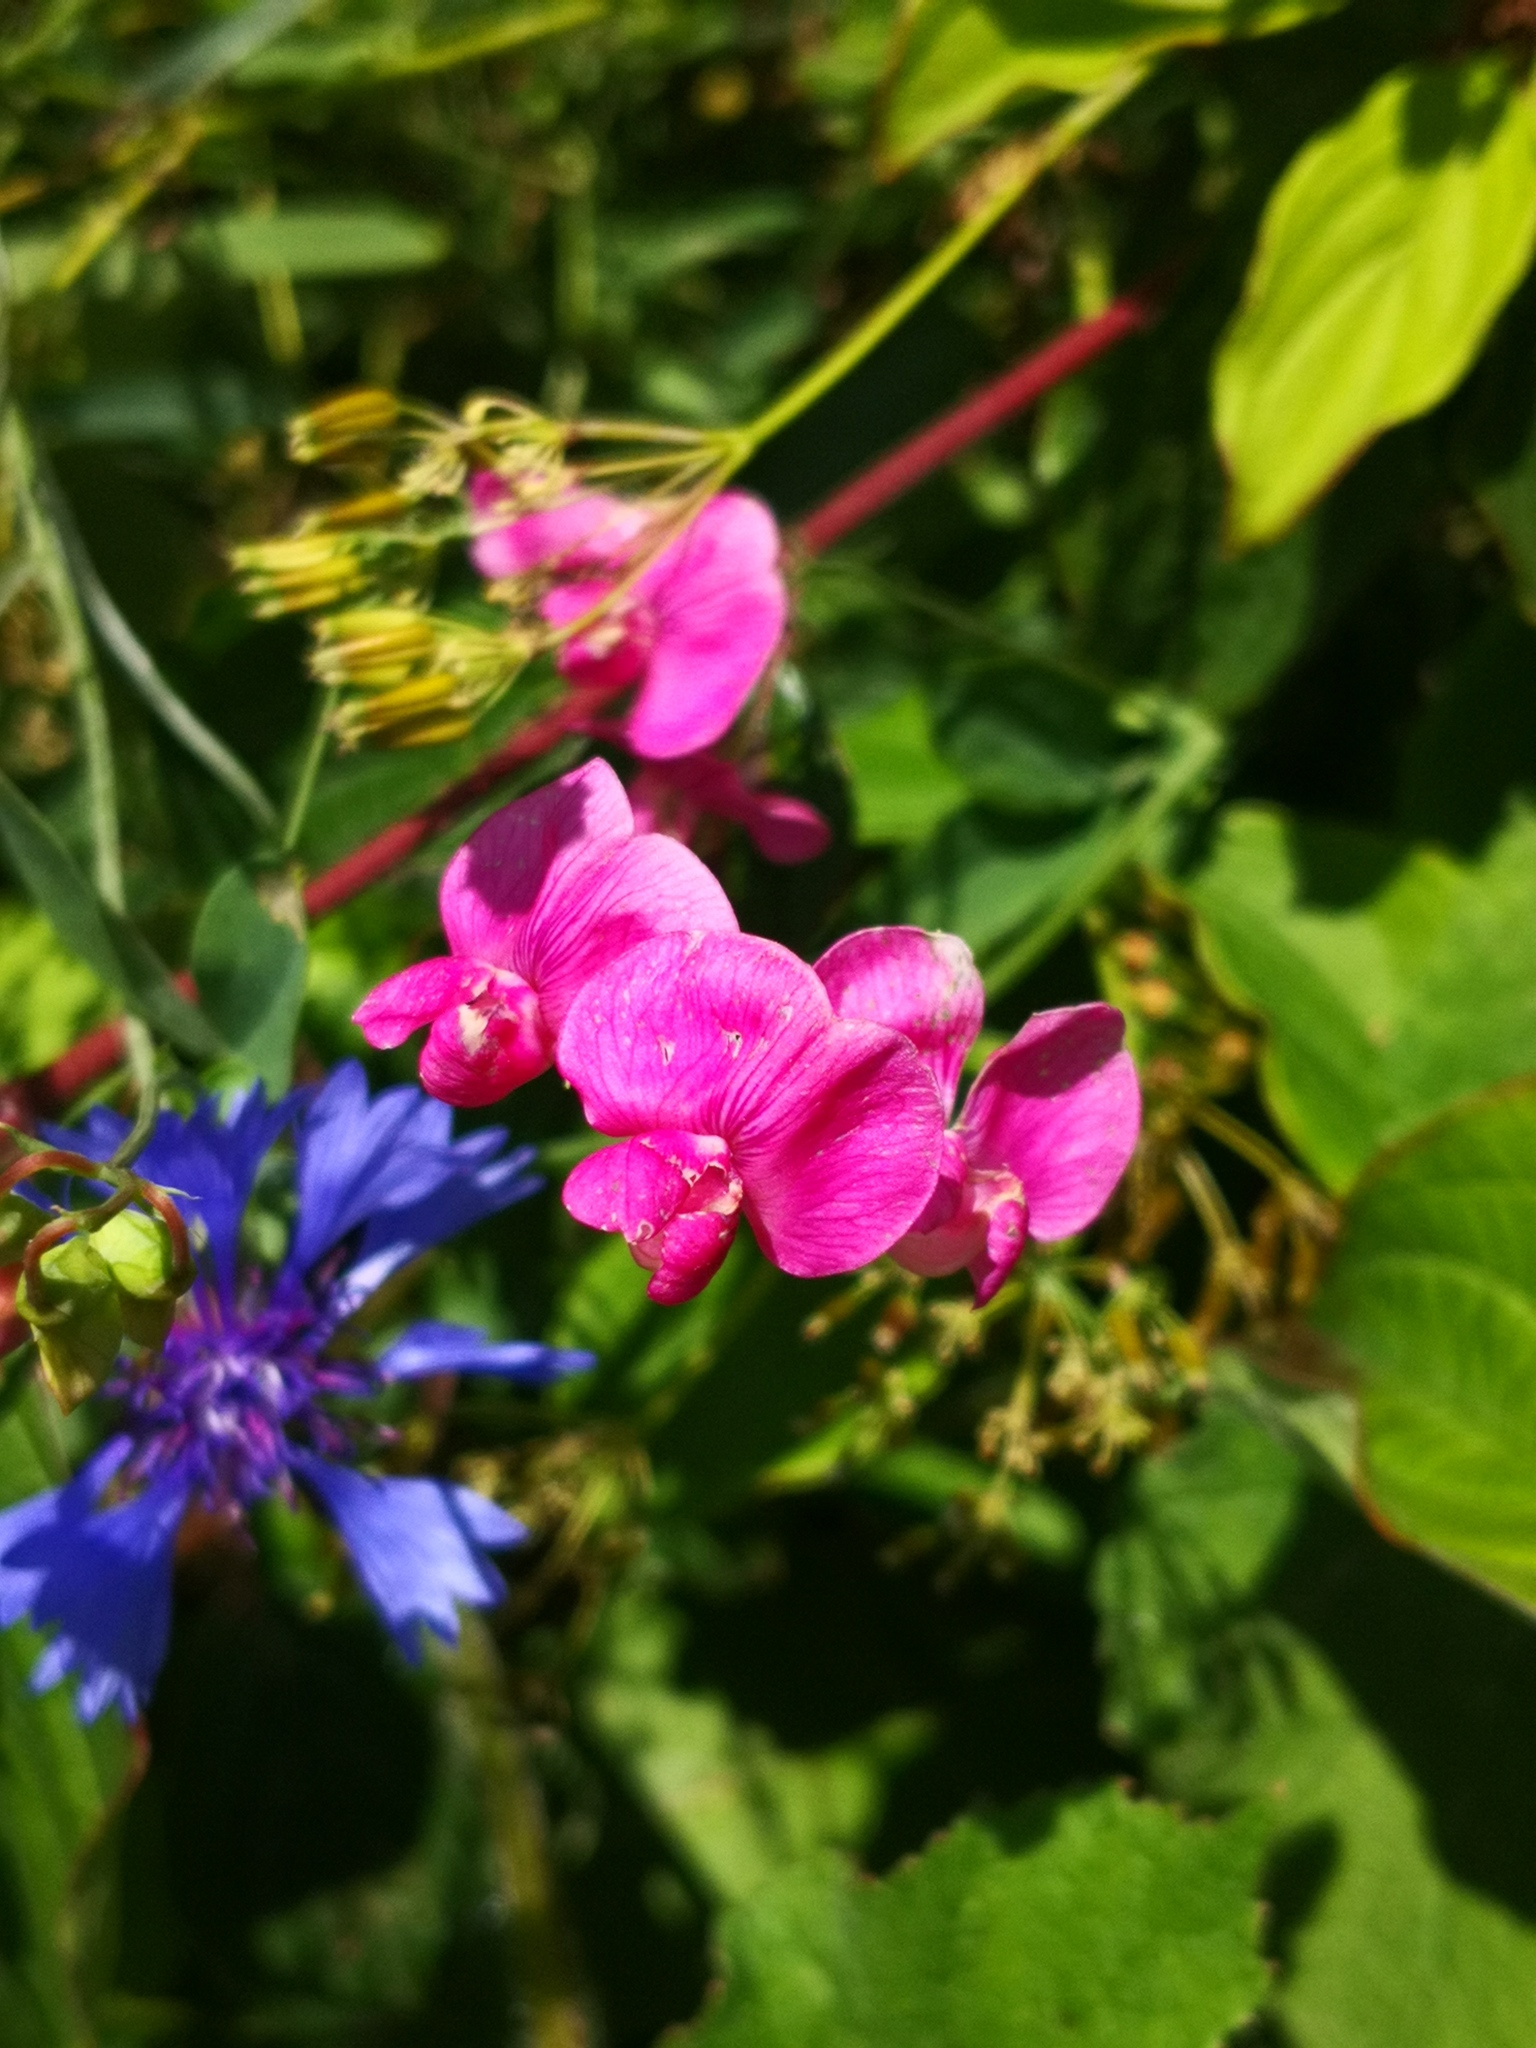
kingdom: Plantae
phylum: Tracheophyta
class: Magnoliopsida
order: Fabales
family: Fabaceae
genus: Lathyrus
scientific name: Lathyrus tuberosus
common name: Tuberous pea
